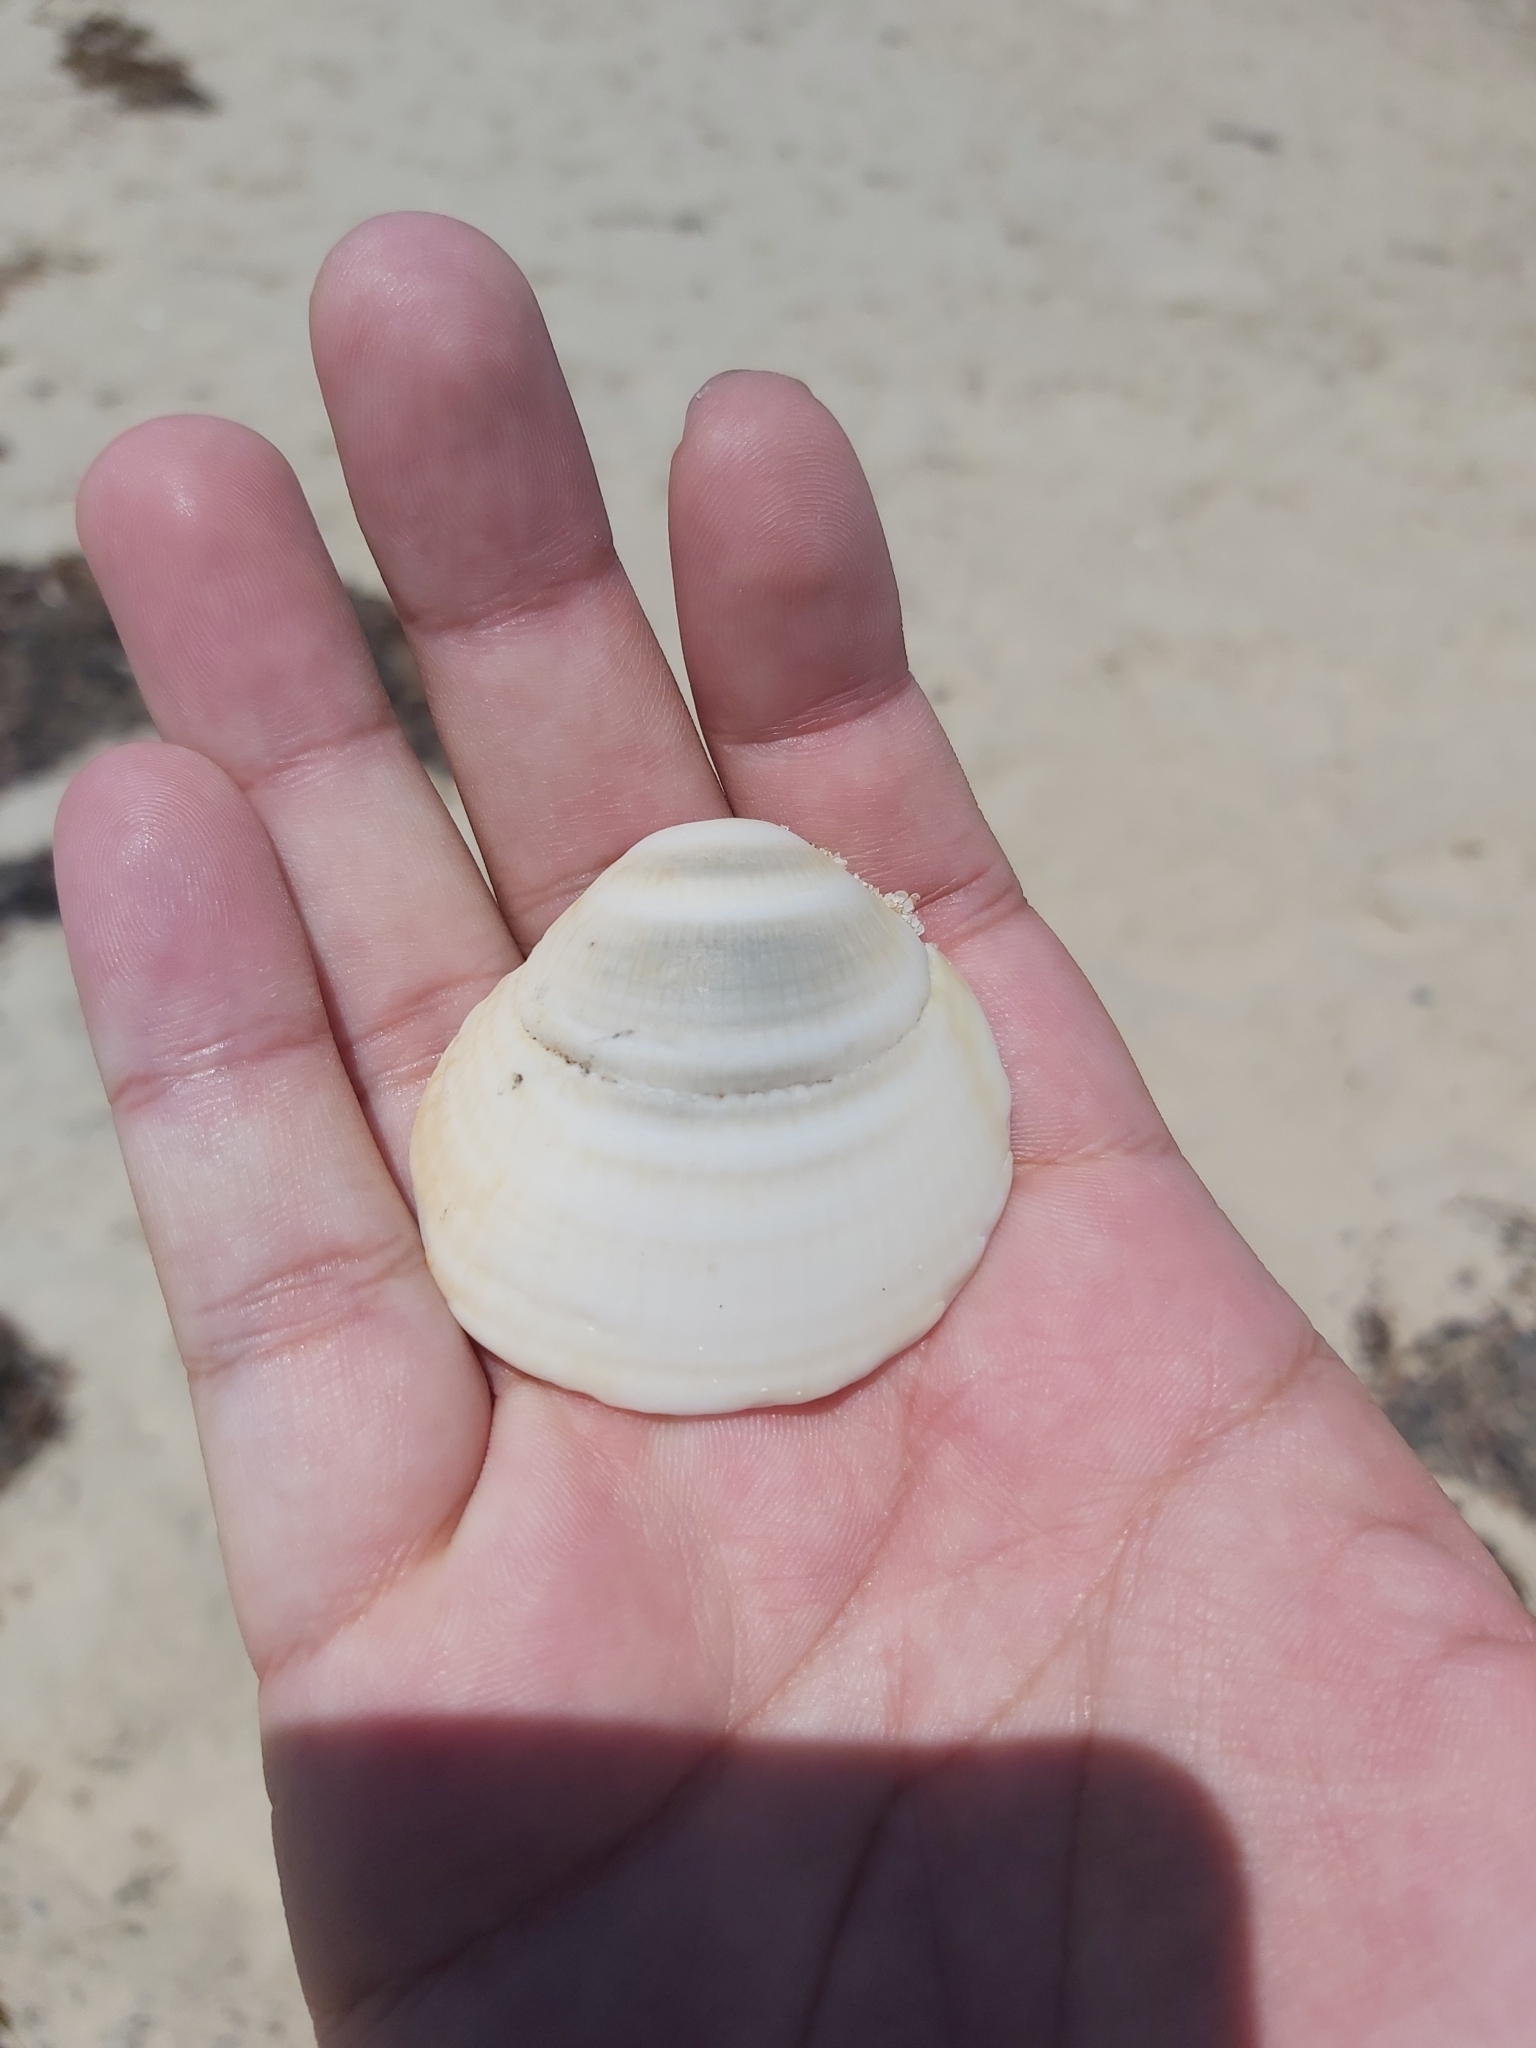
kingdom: Animalia
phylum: Mollusca
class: Bivalvia
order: Arcida
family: Glycymerididae
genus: Glycymeris
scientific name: Glycymeris grayana
